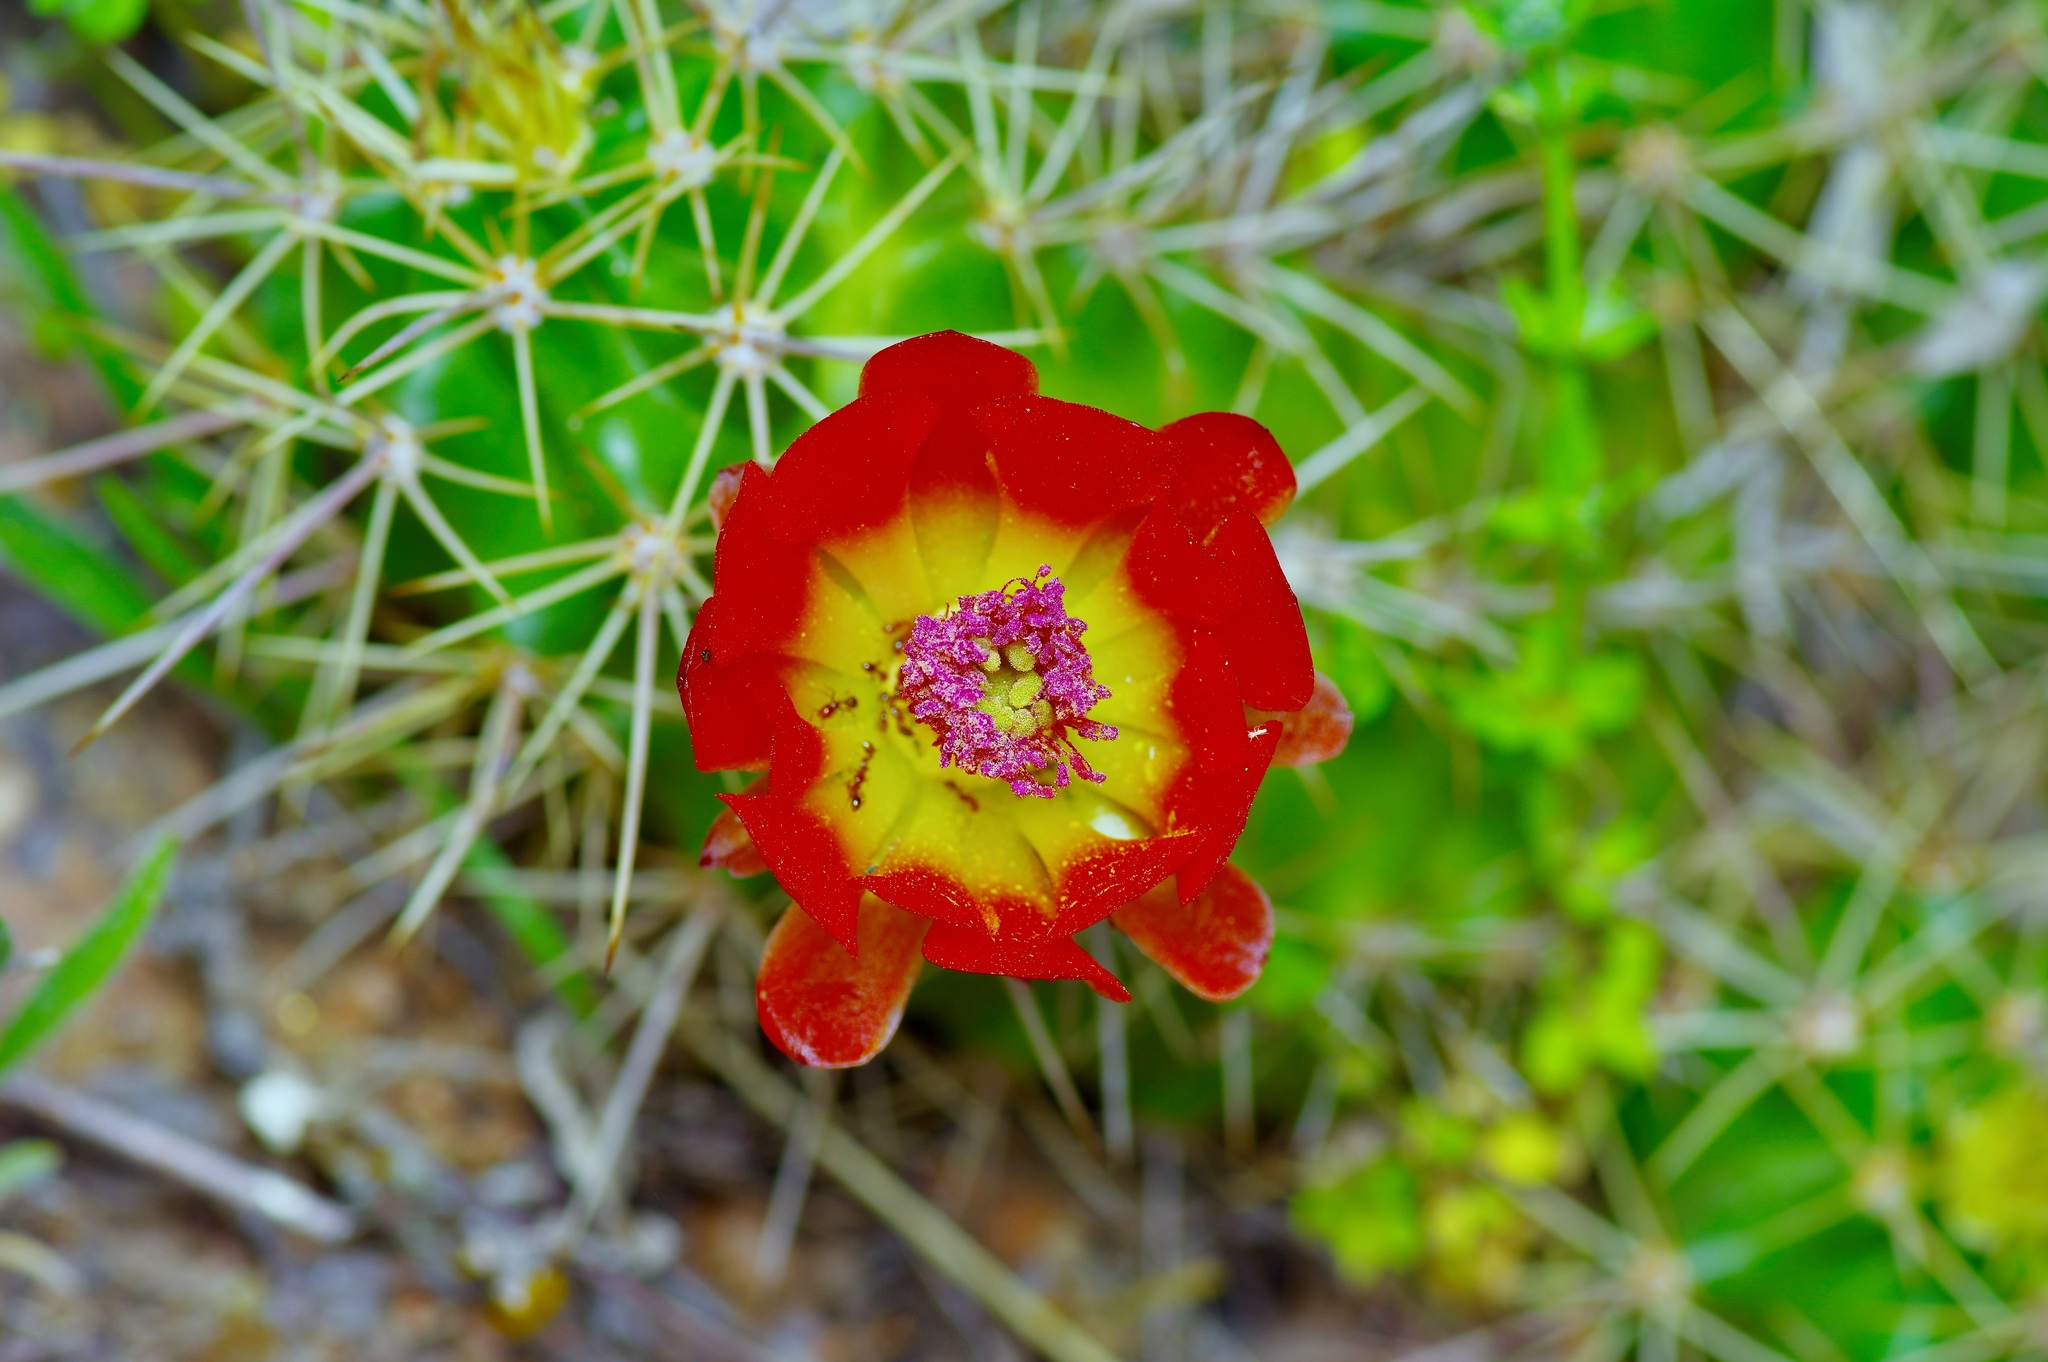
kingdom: Plantae
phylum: Tracheophyta
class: Magnoliopsida
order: Caryophyllales
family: Cactaceae
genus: Echinocereus
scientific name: Echinocereus coccineus
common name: Scarlet hedgehog cactus
